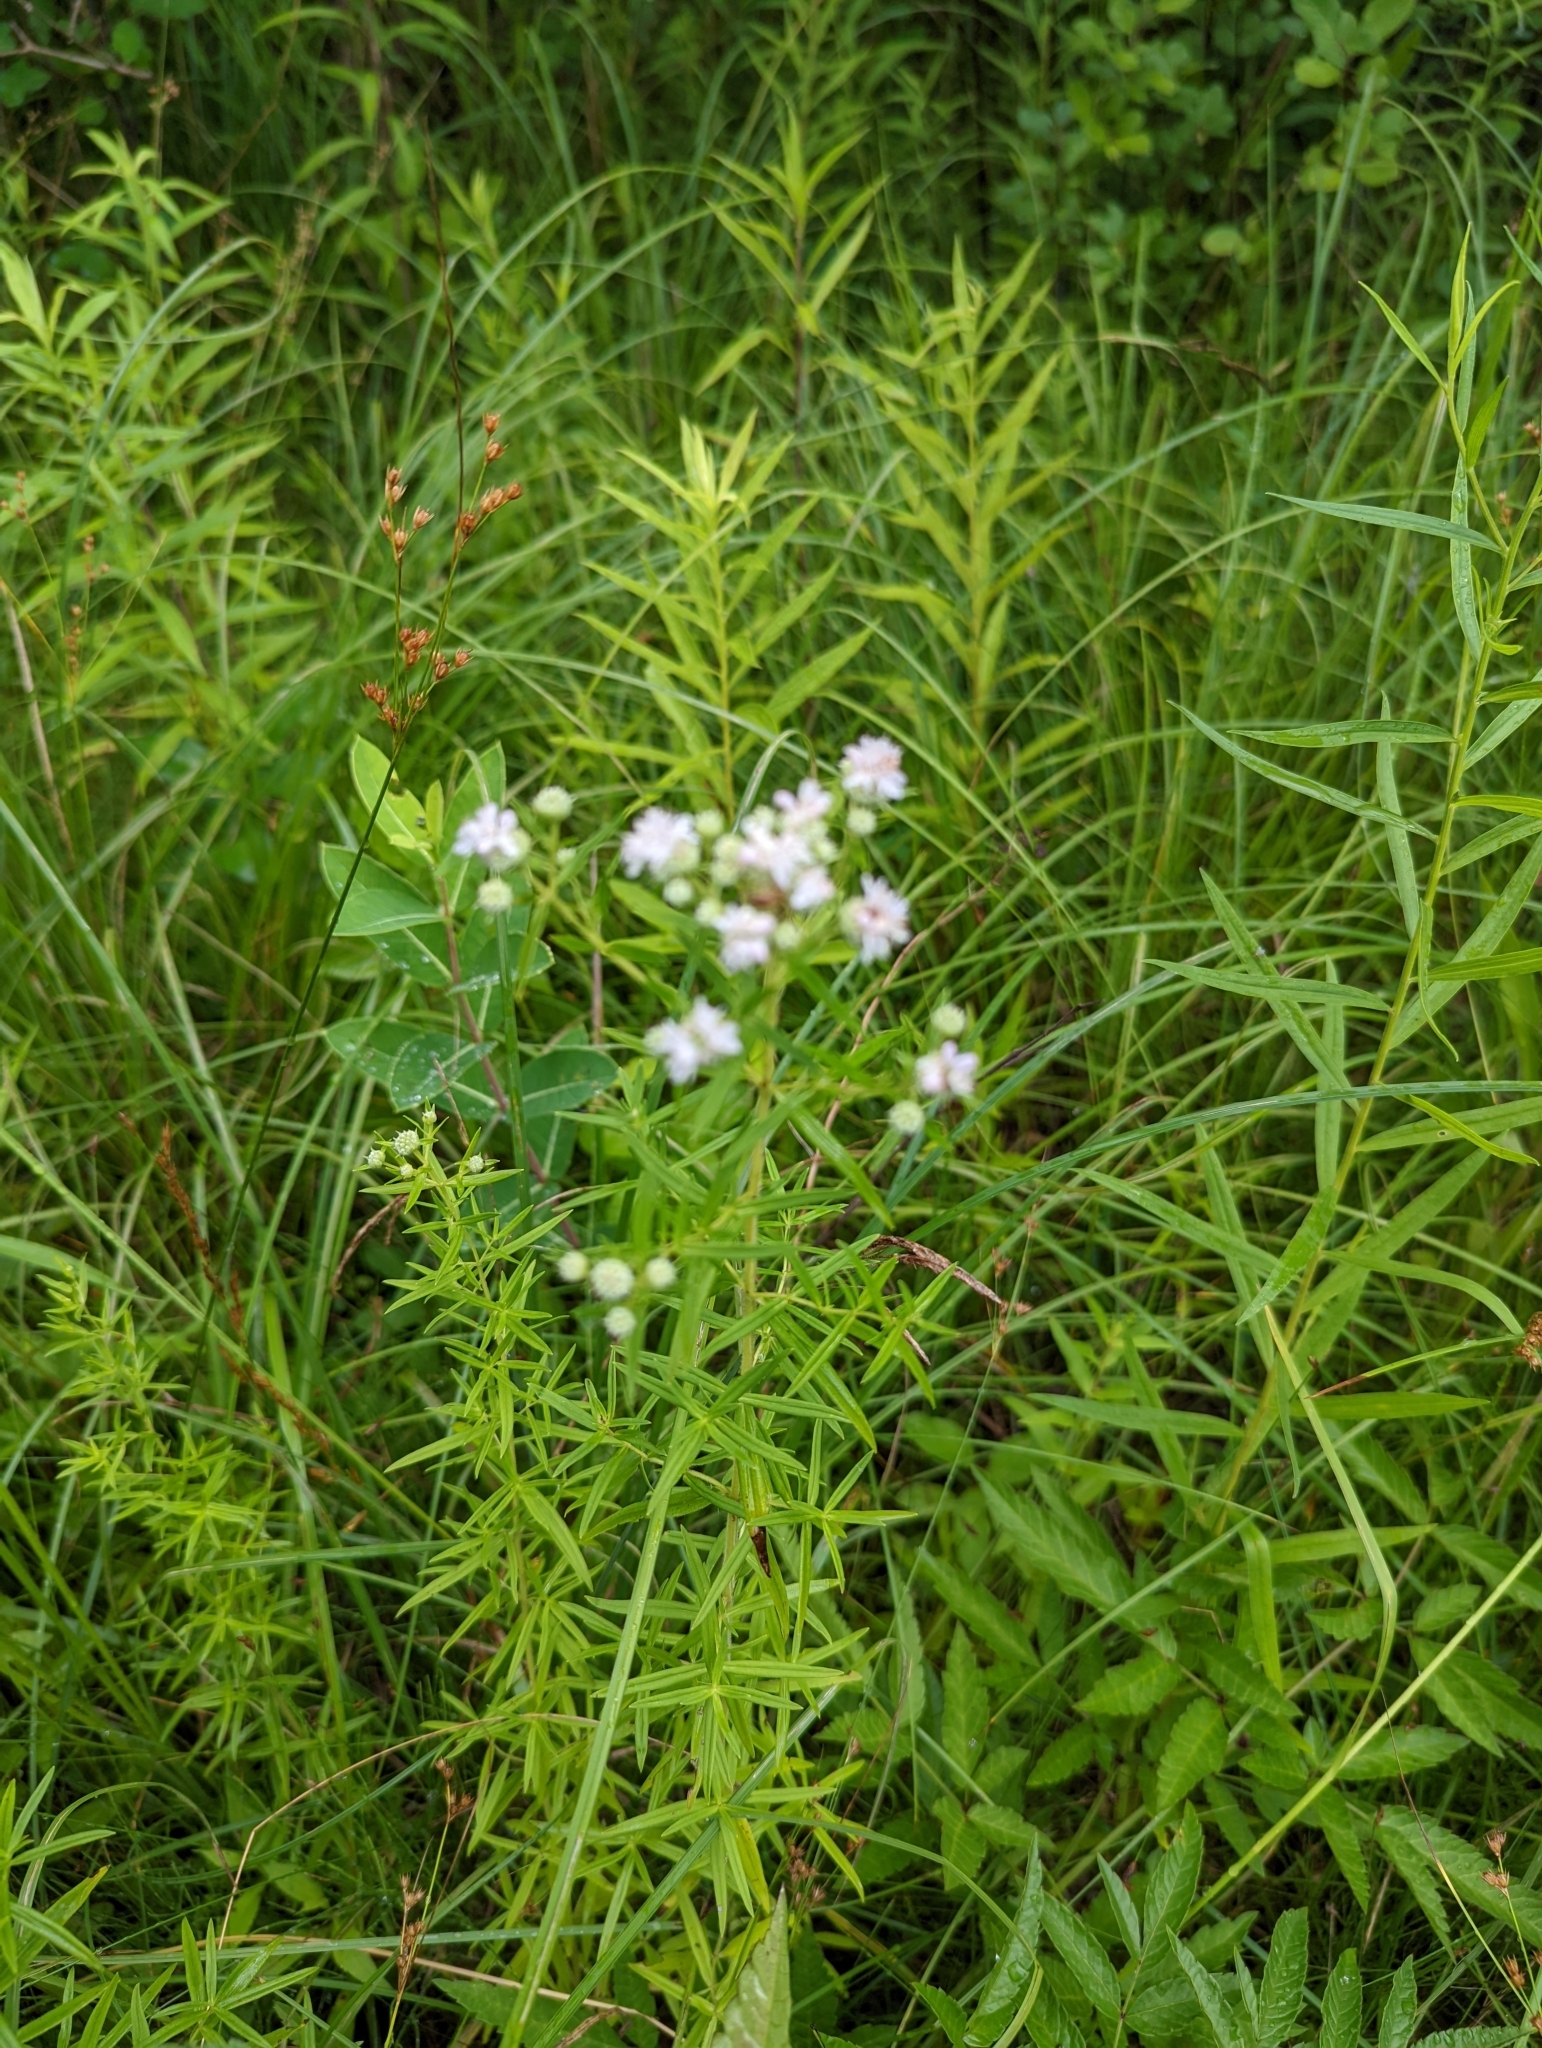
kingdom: Plantae
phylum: Tracheophyta
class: Magnoliopsida
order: Lamiales
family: Lamiaceae
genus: Pycnanthemum
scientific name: Pycnanthemum tenuifolium
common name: Narrow-leaf mountain-mint
